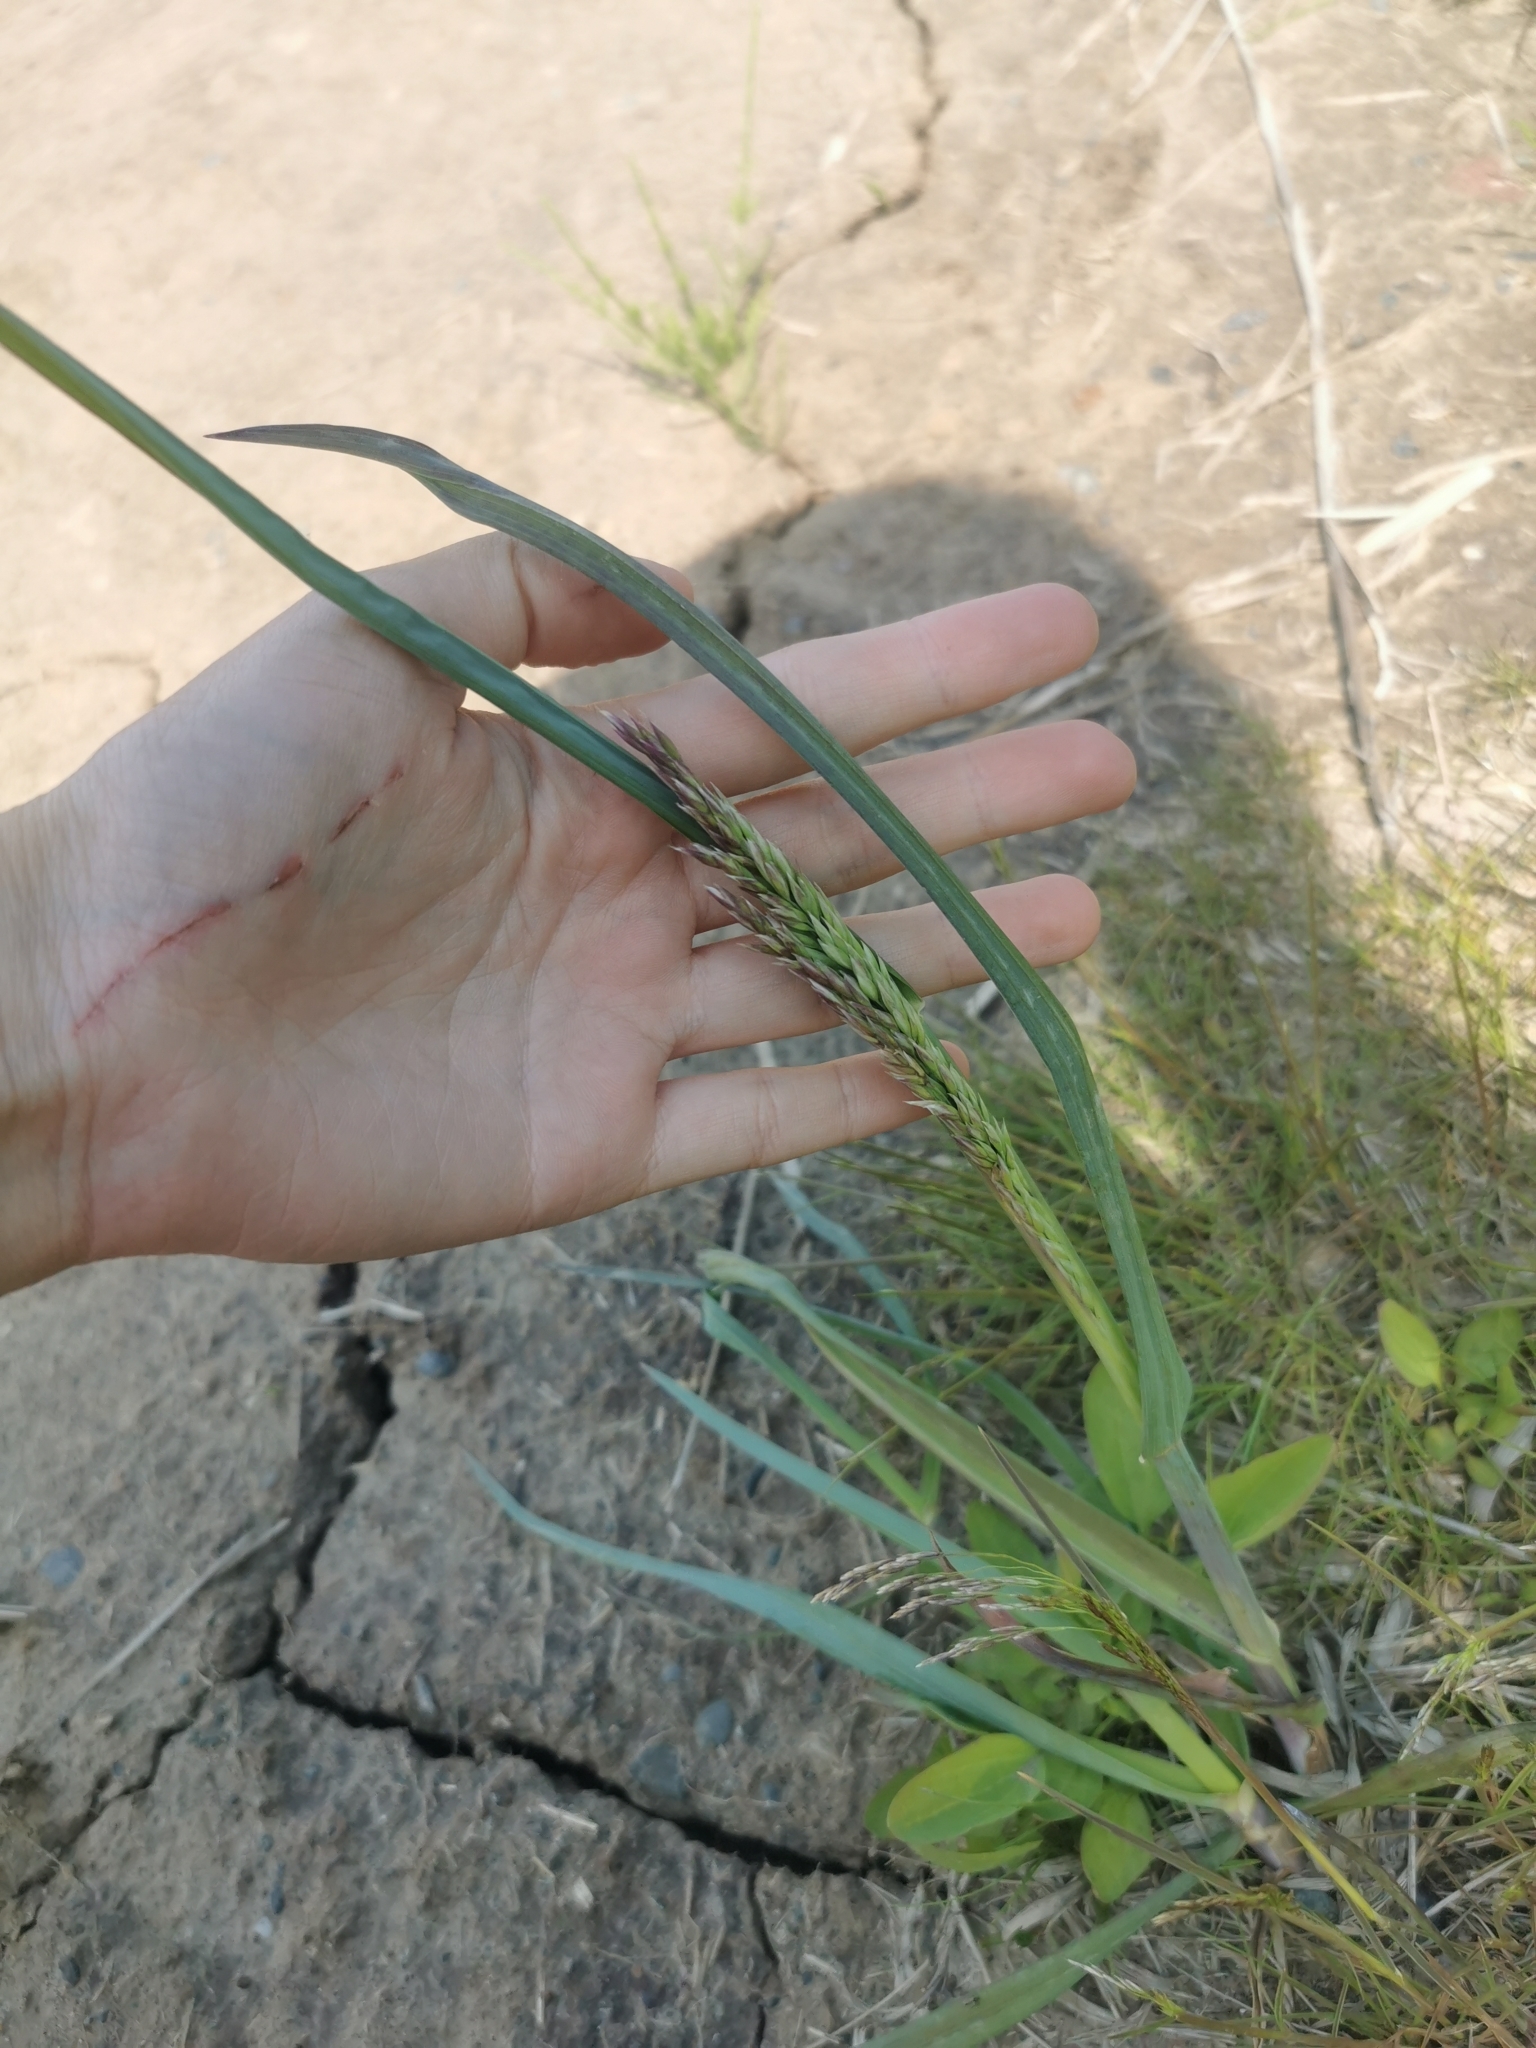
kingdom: Plantae
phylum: Tracheophyta
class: Liliopsida
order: Poales
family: Poaceae
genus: Echinochloa
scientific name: Echinochloa crus-galli
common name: Cockspur
